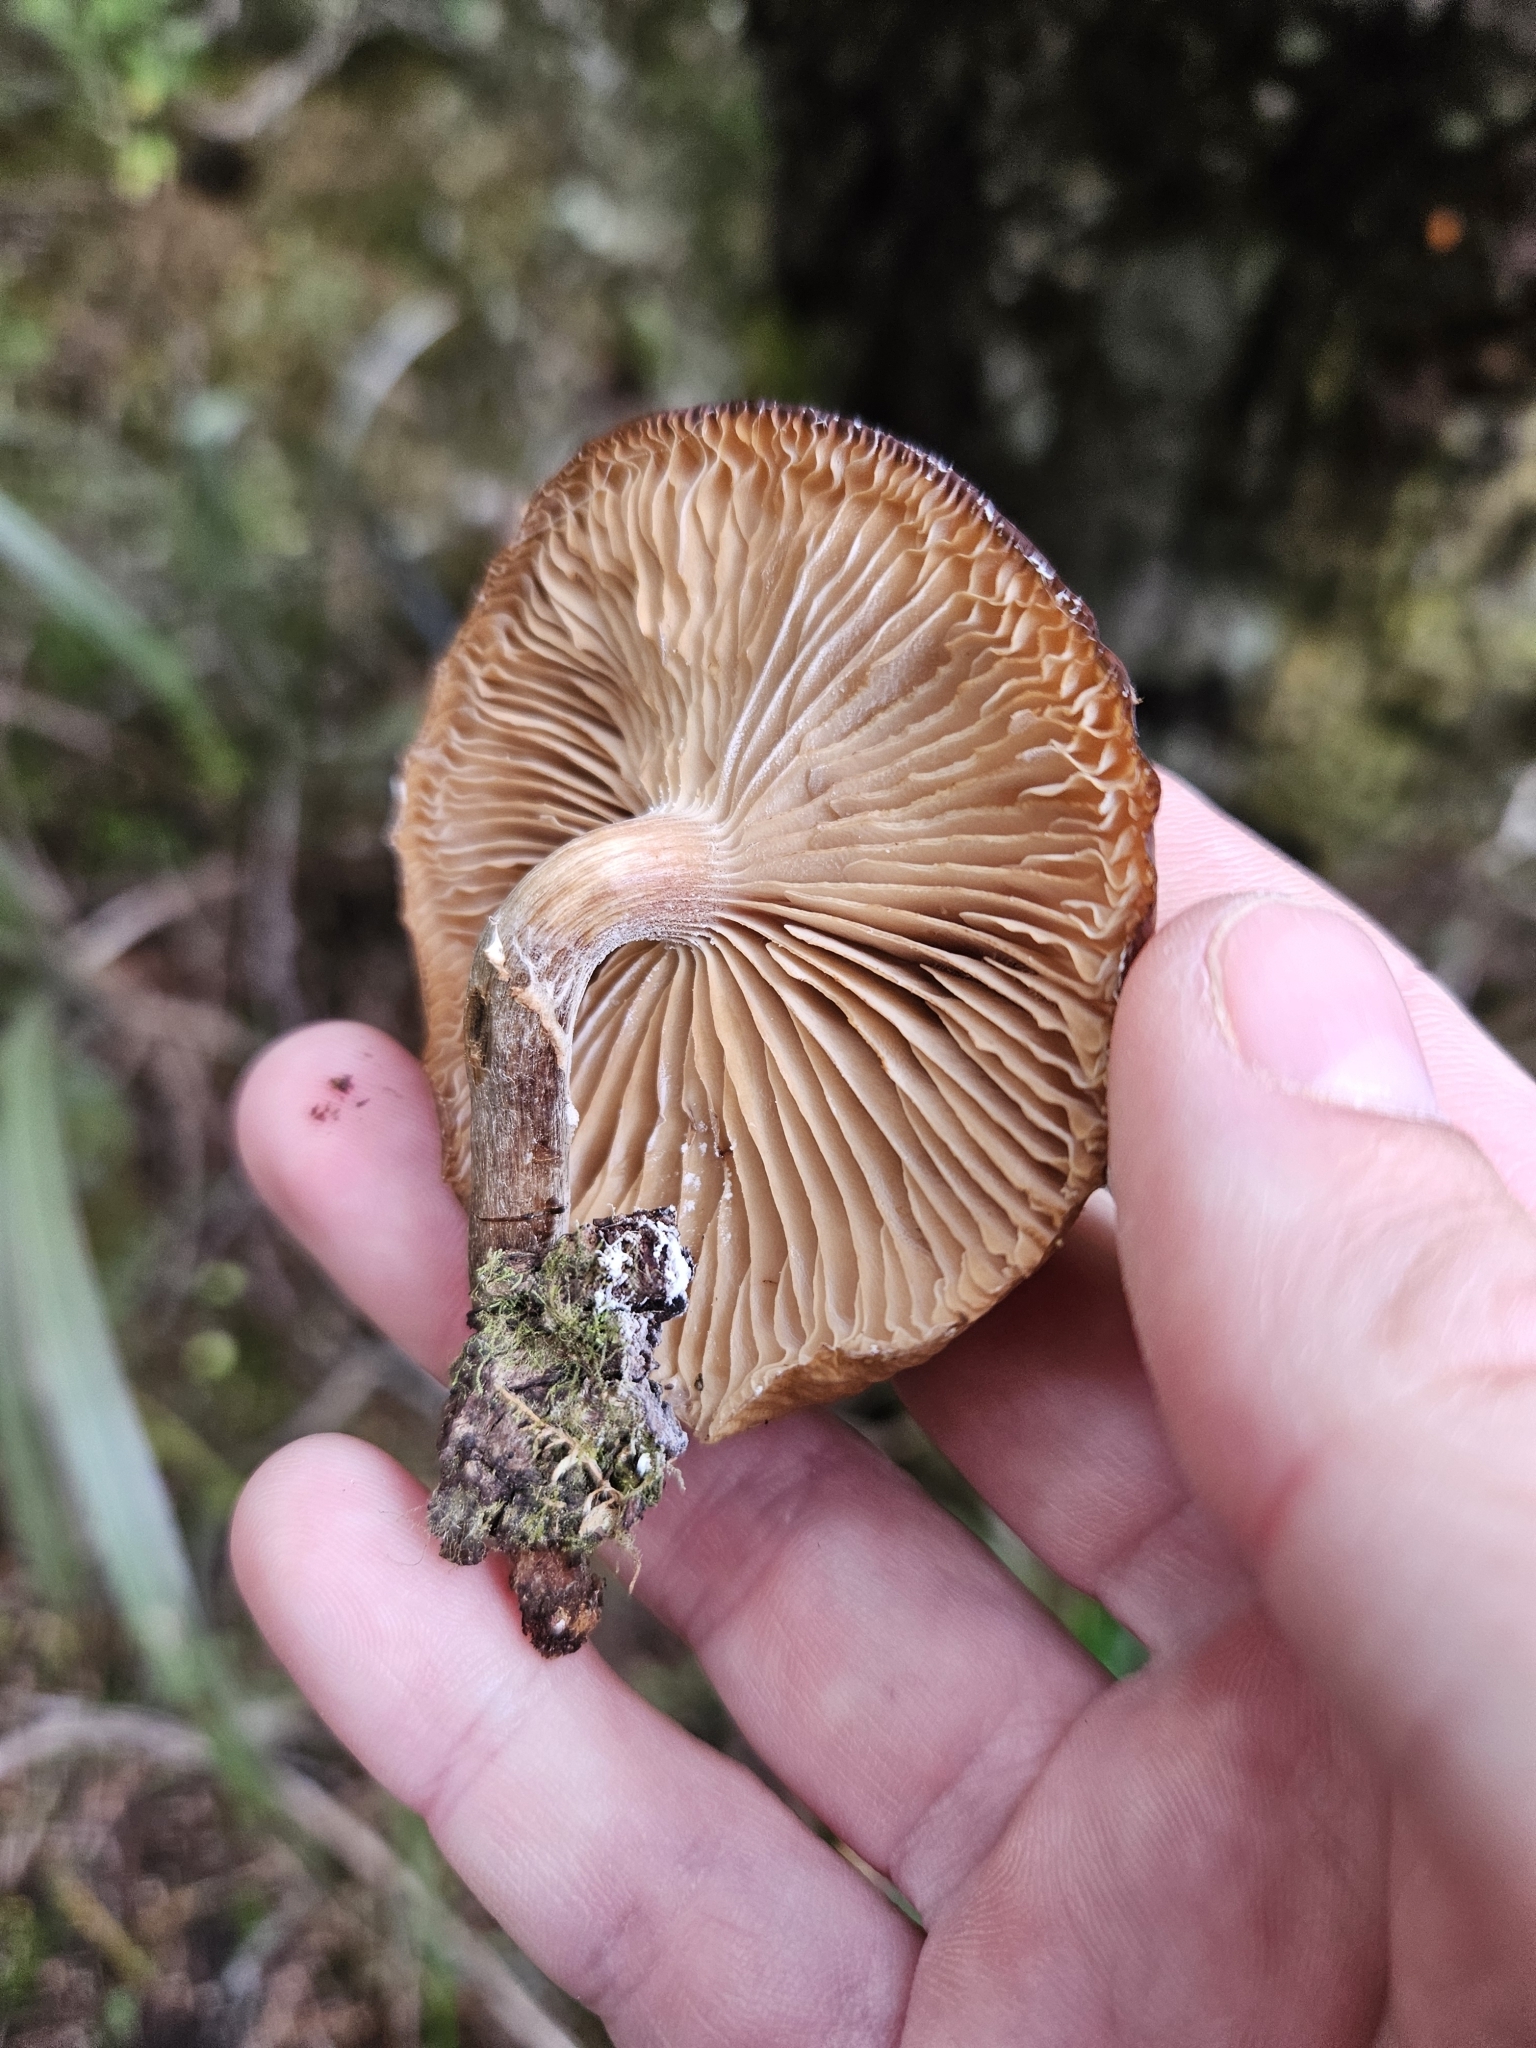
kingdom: Fungi
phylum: Basidiomycota
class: Agaricomycetes
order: Agaricales
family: Physalacriaceae
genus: Armillaria
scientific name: Armillaria novae-zelandiae
